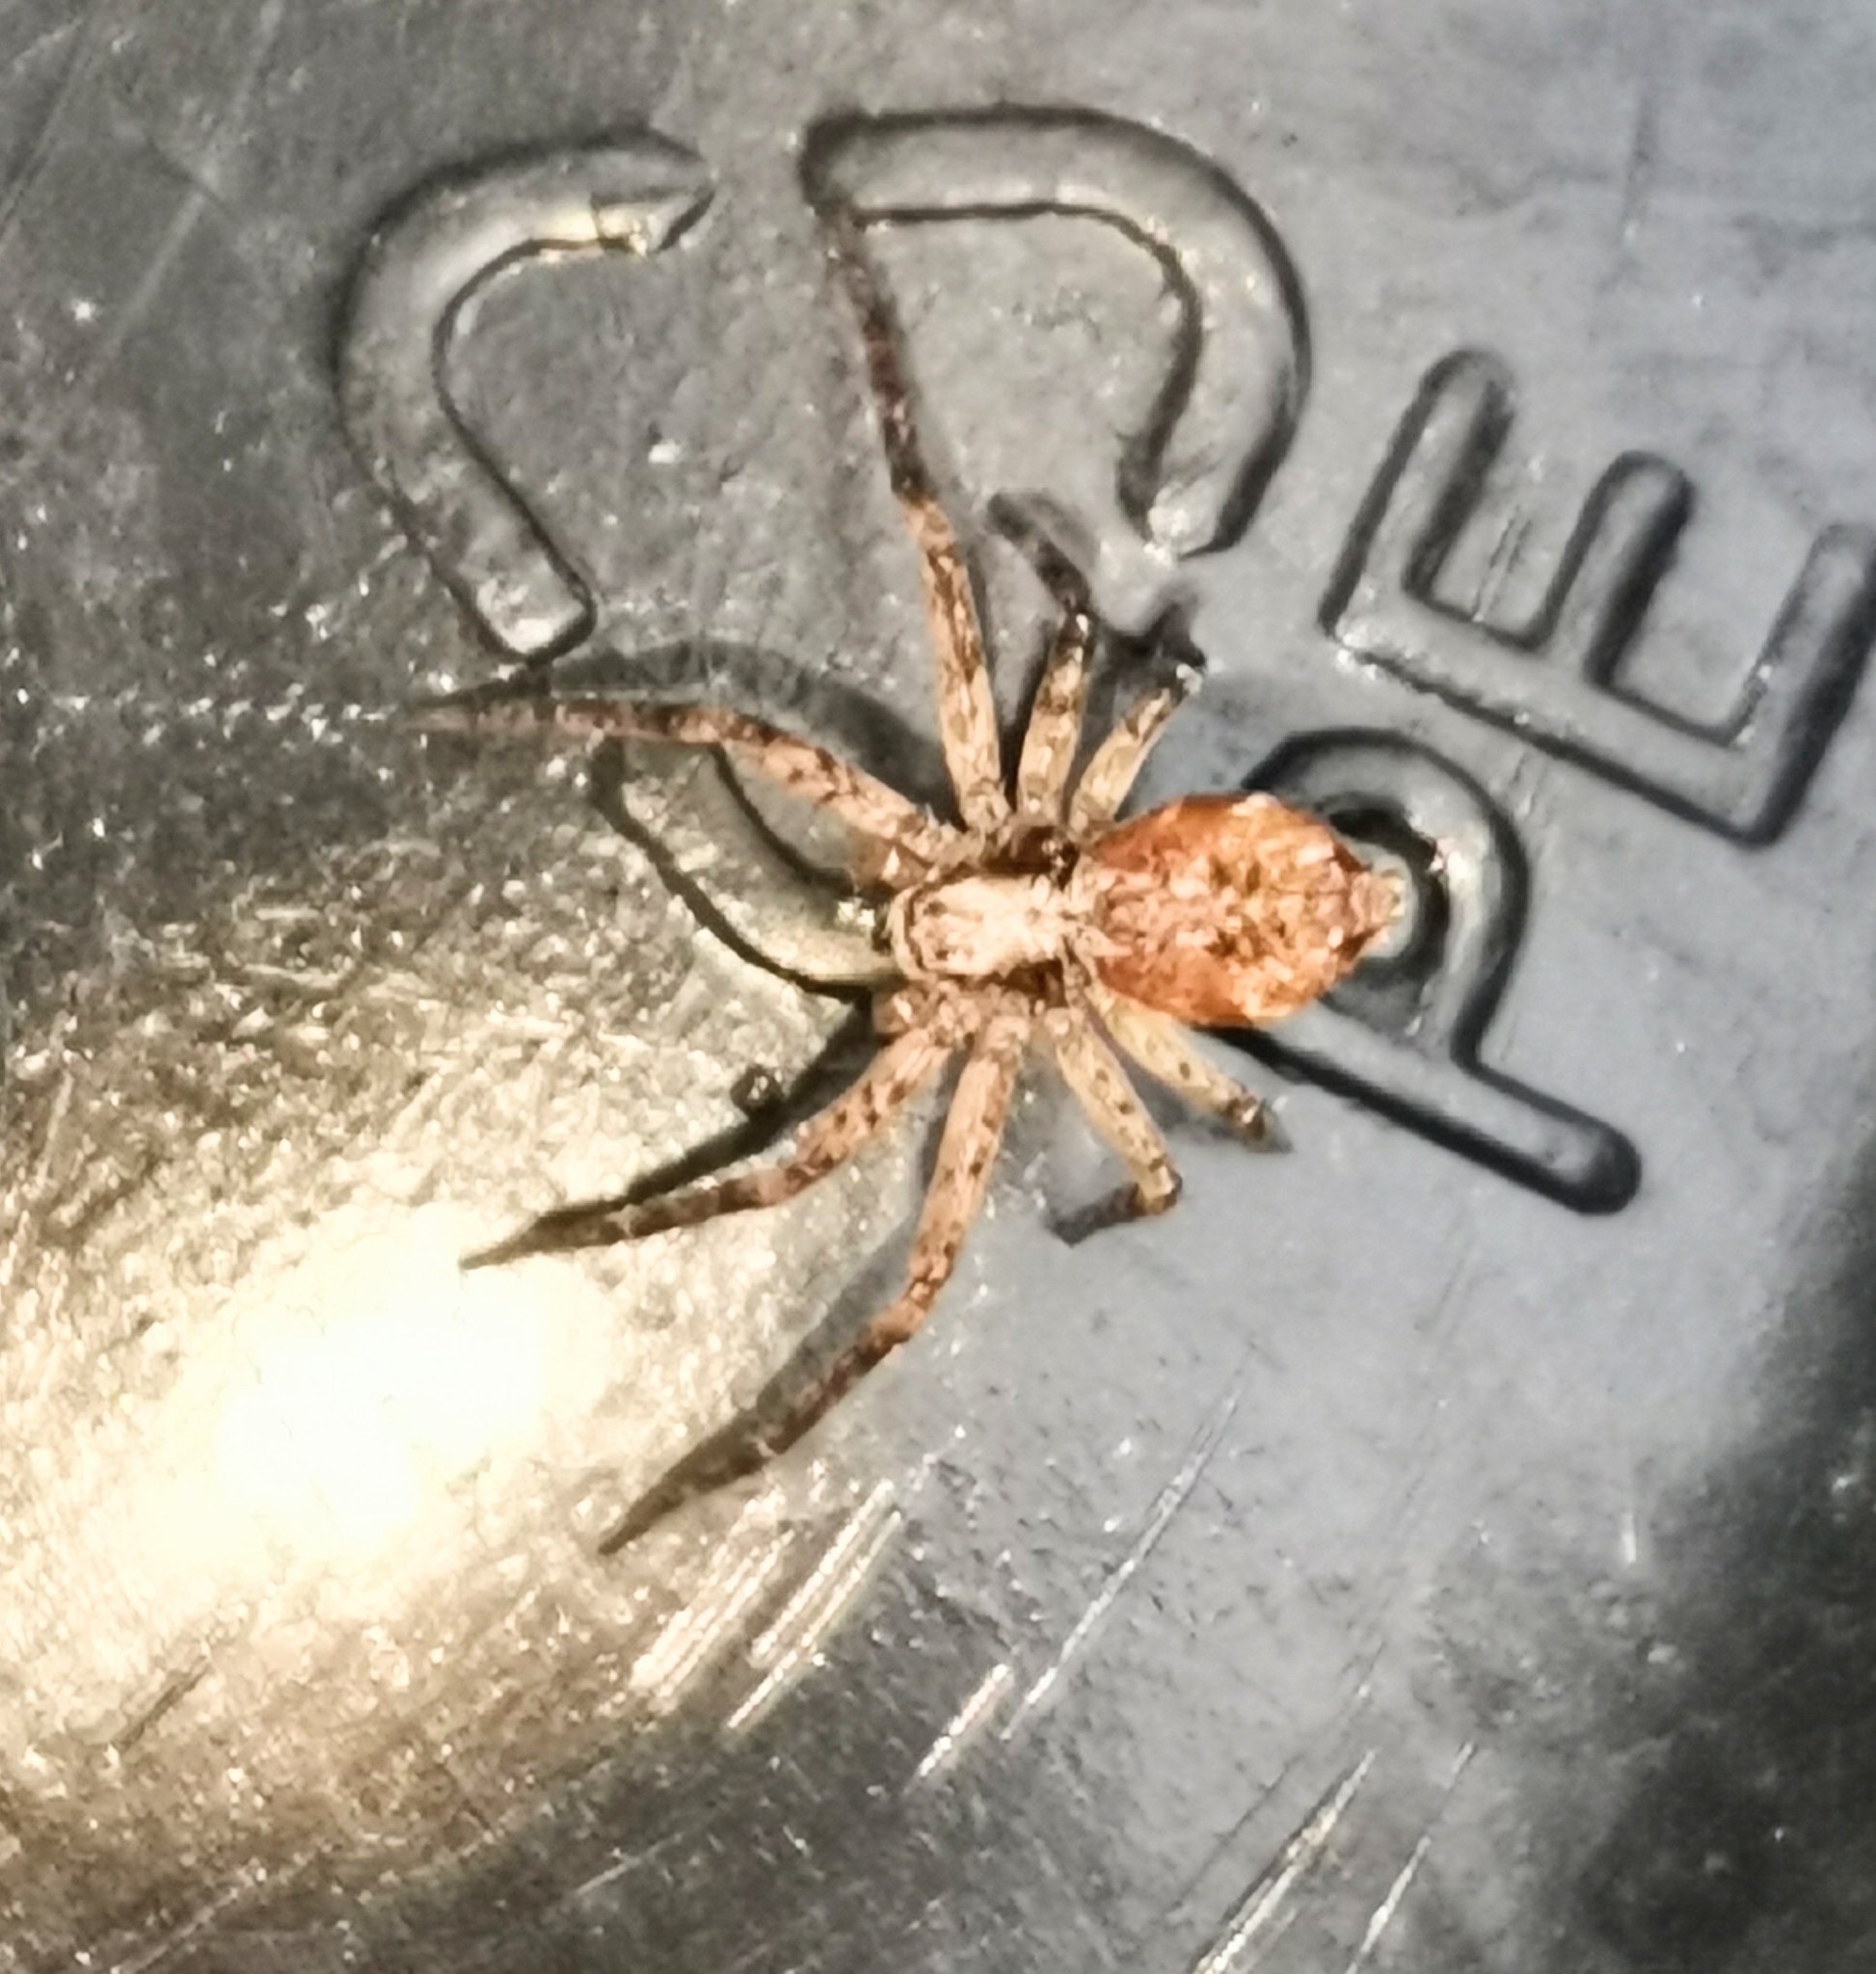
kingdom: Animalia
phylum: Arthropoda
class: Arachnida
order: Araneae
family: Philodromidae
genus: Philodromus
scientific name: Philodromus
